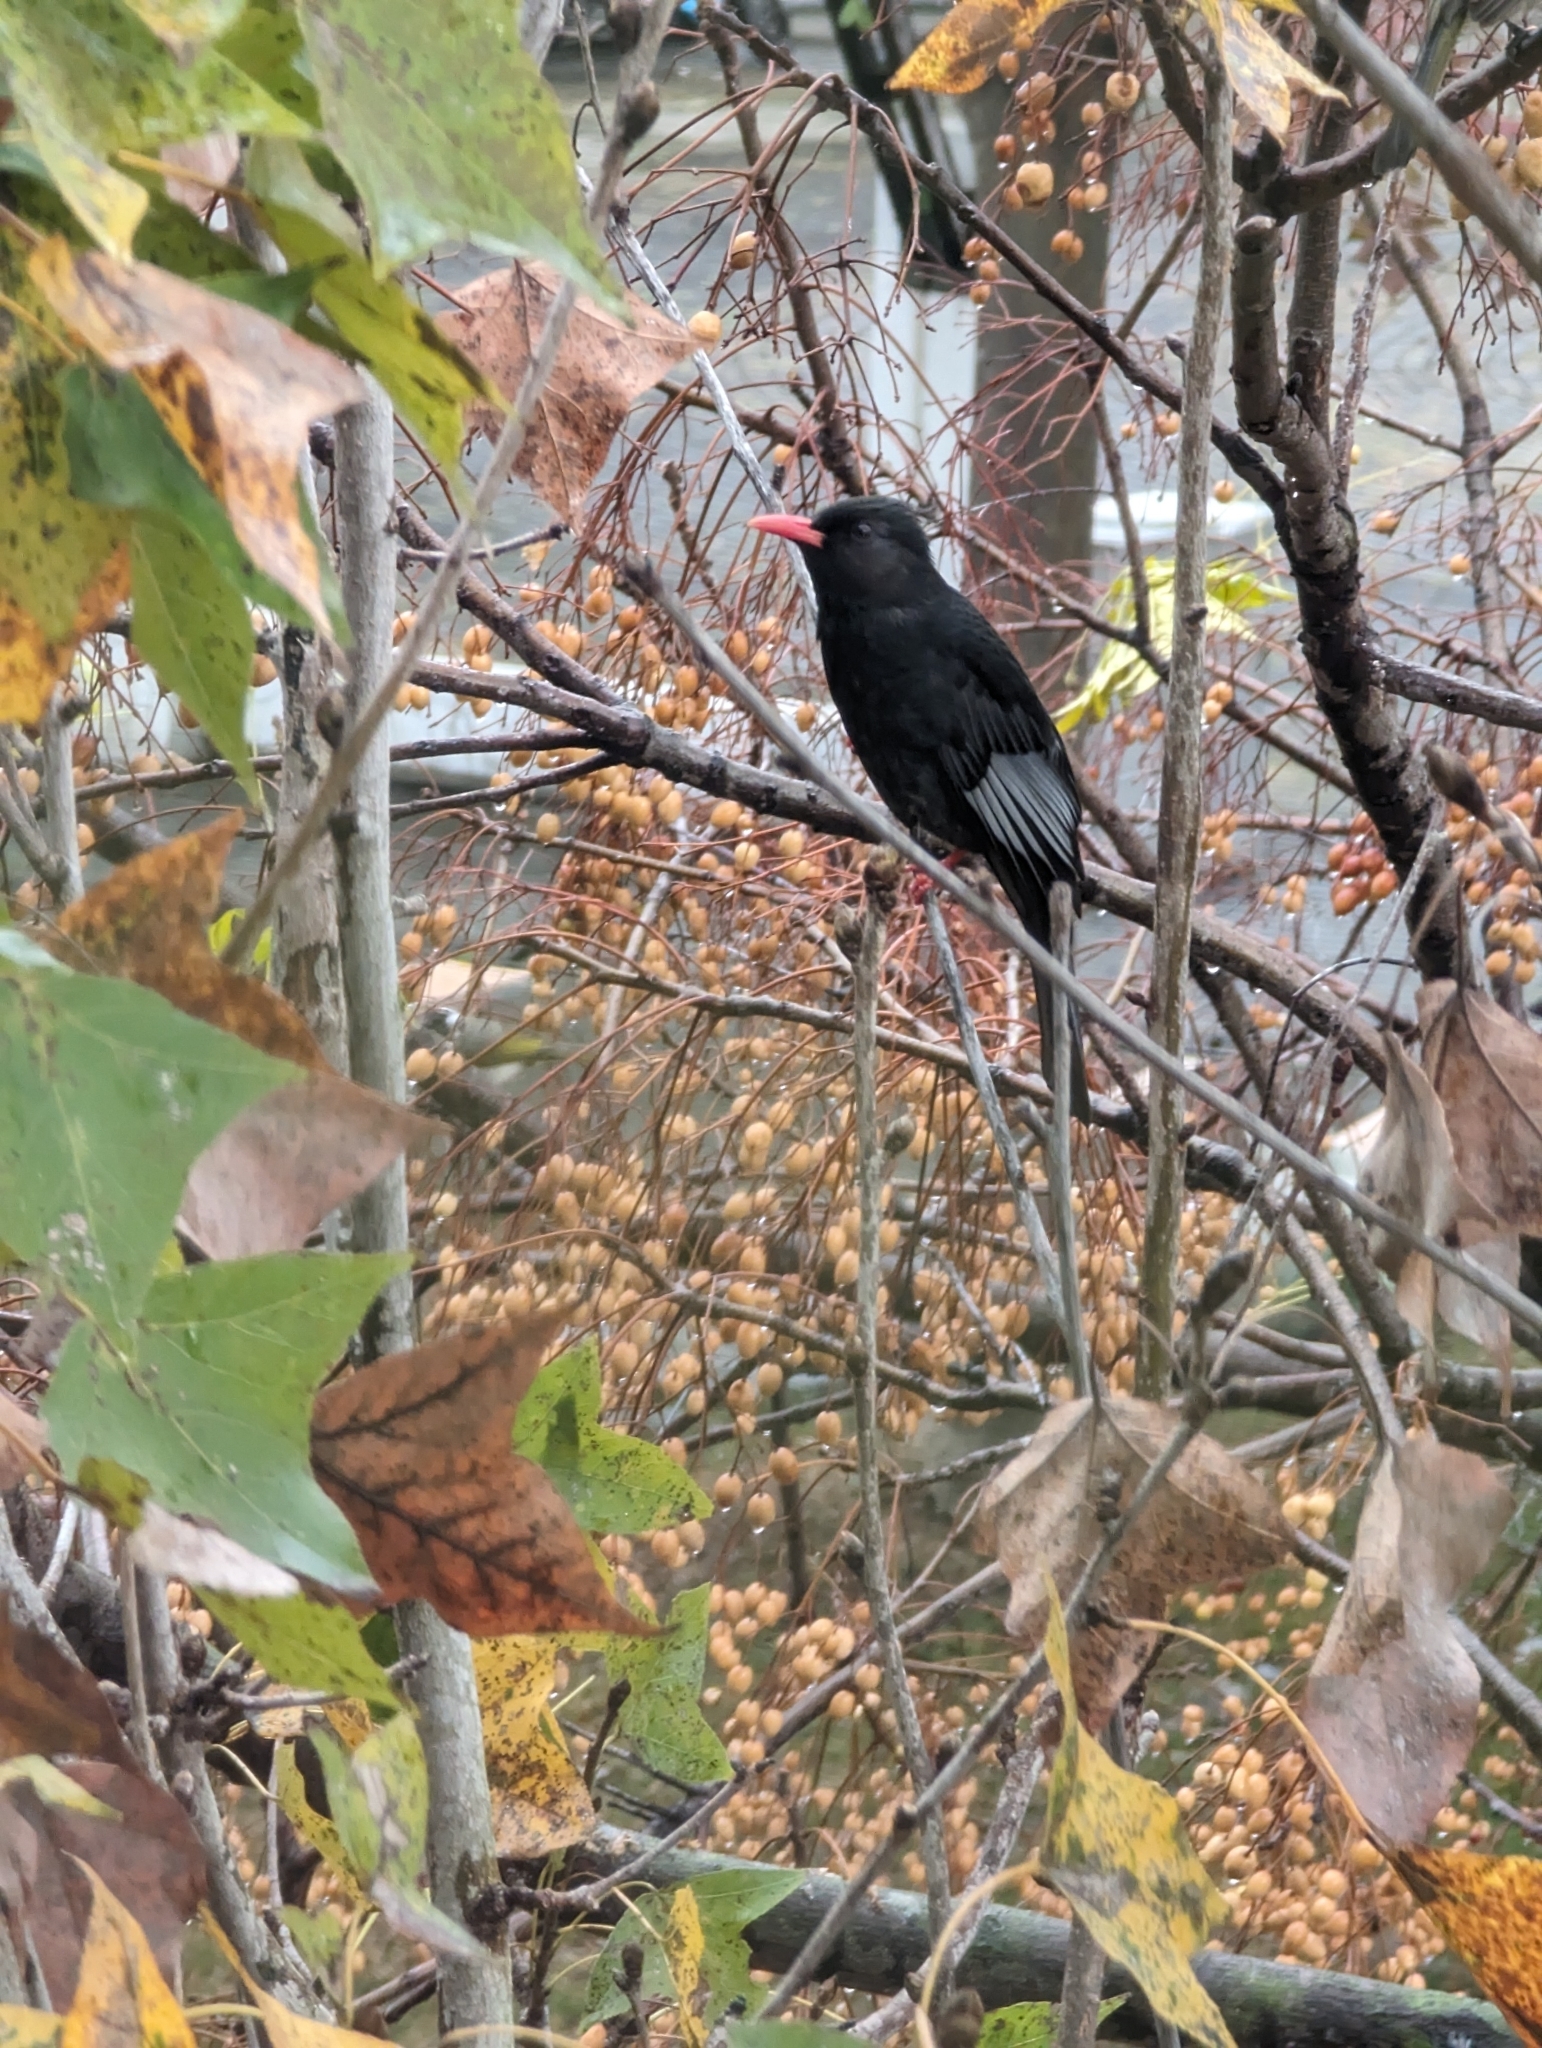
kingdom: Animalia
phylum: Chordata
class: Aves
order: Passeriformes
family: Pycnonotidae
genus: Hypsipetes
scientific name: Hypsipetes leucocephalus
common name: Black bulbul
